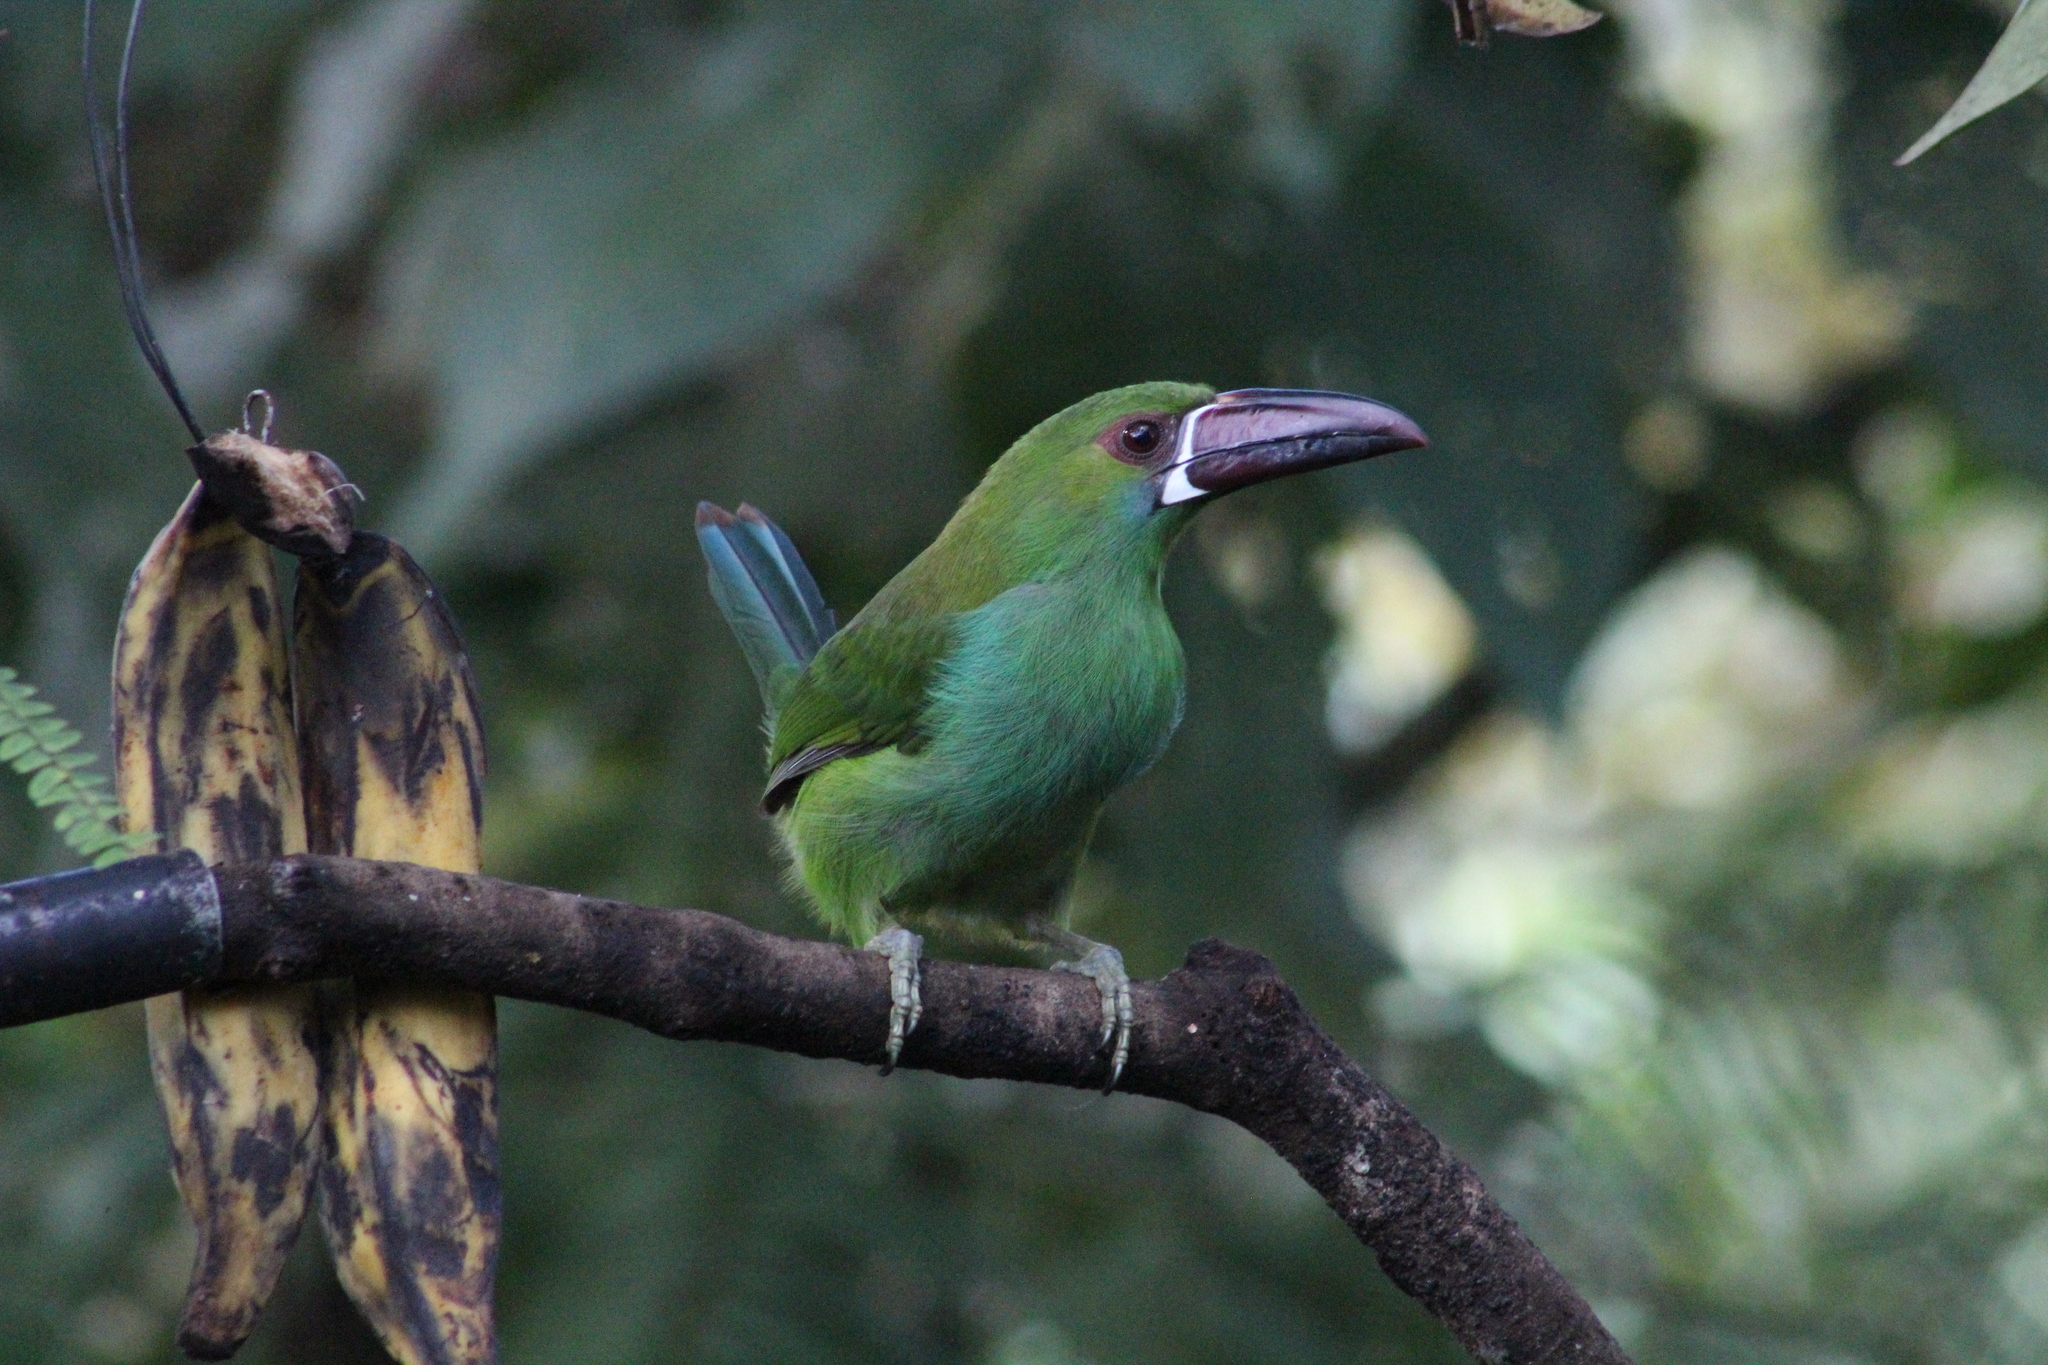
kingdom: Animalia
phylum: Chordata
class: Aves
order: Piciformes
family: Ramphastidae
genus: Aulacorhynchus
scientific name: Aulacorhynchus haematopygus
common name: Crimson-rumped toucanet
